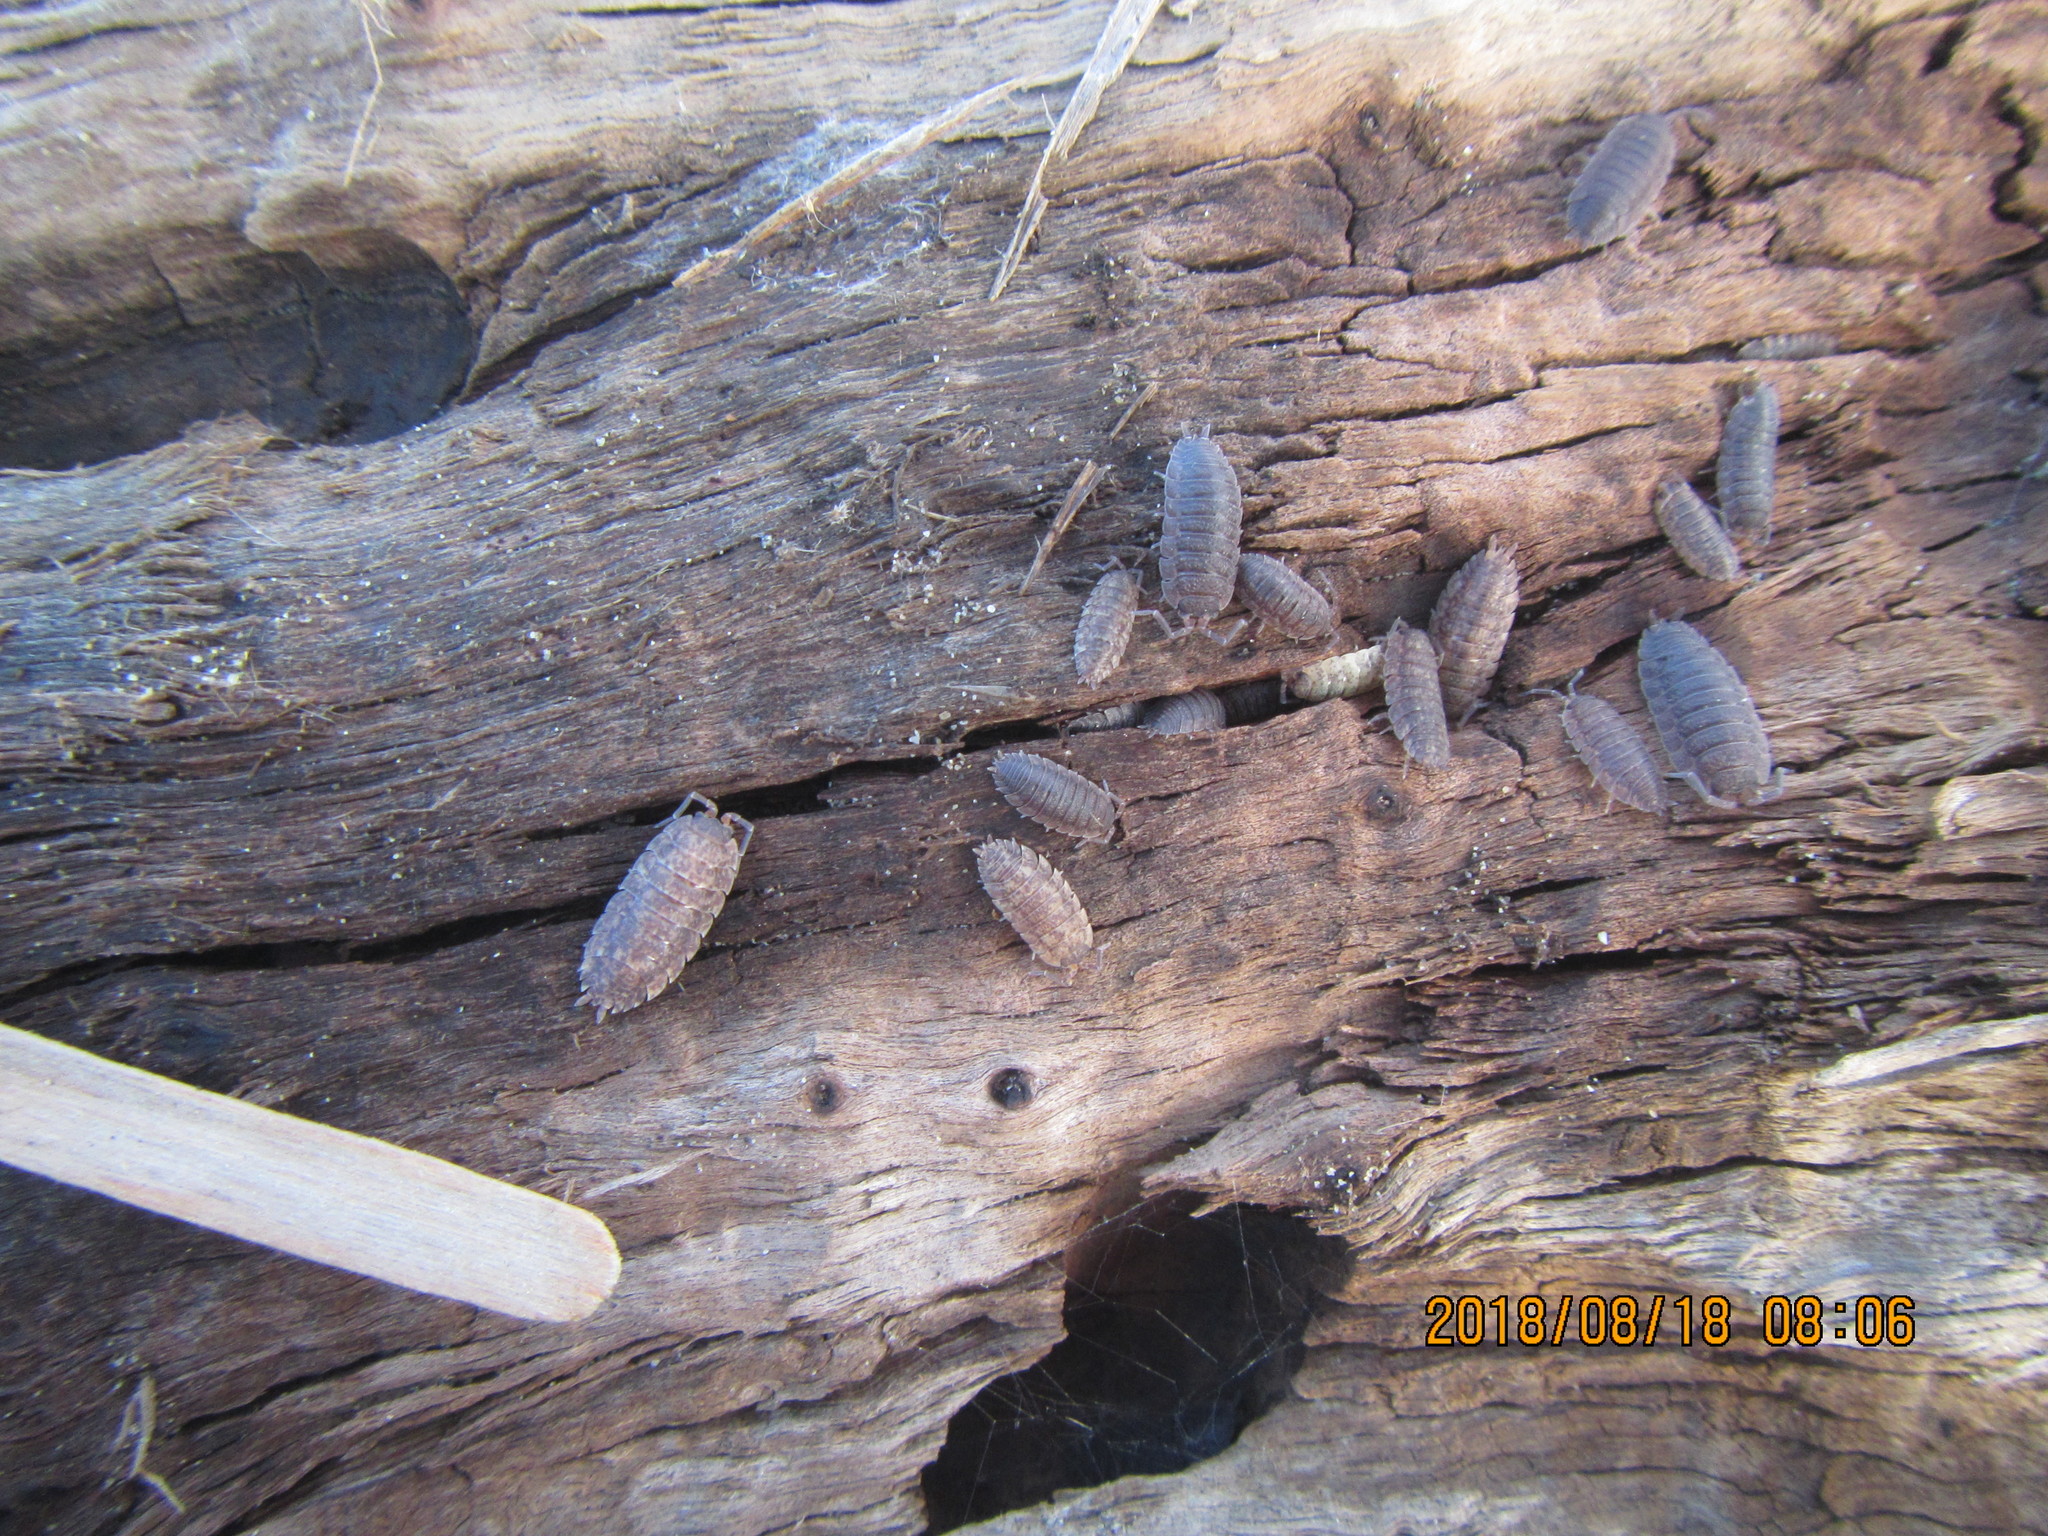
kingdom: Animalia
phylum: Arthropoda
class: Malacostraca
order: Isopoda
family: Porcellionidae
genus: Porcellio
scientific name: Porcellio scaber
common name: Common rough woodlouse
